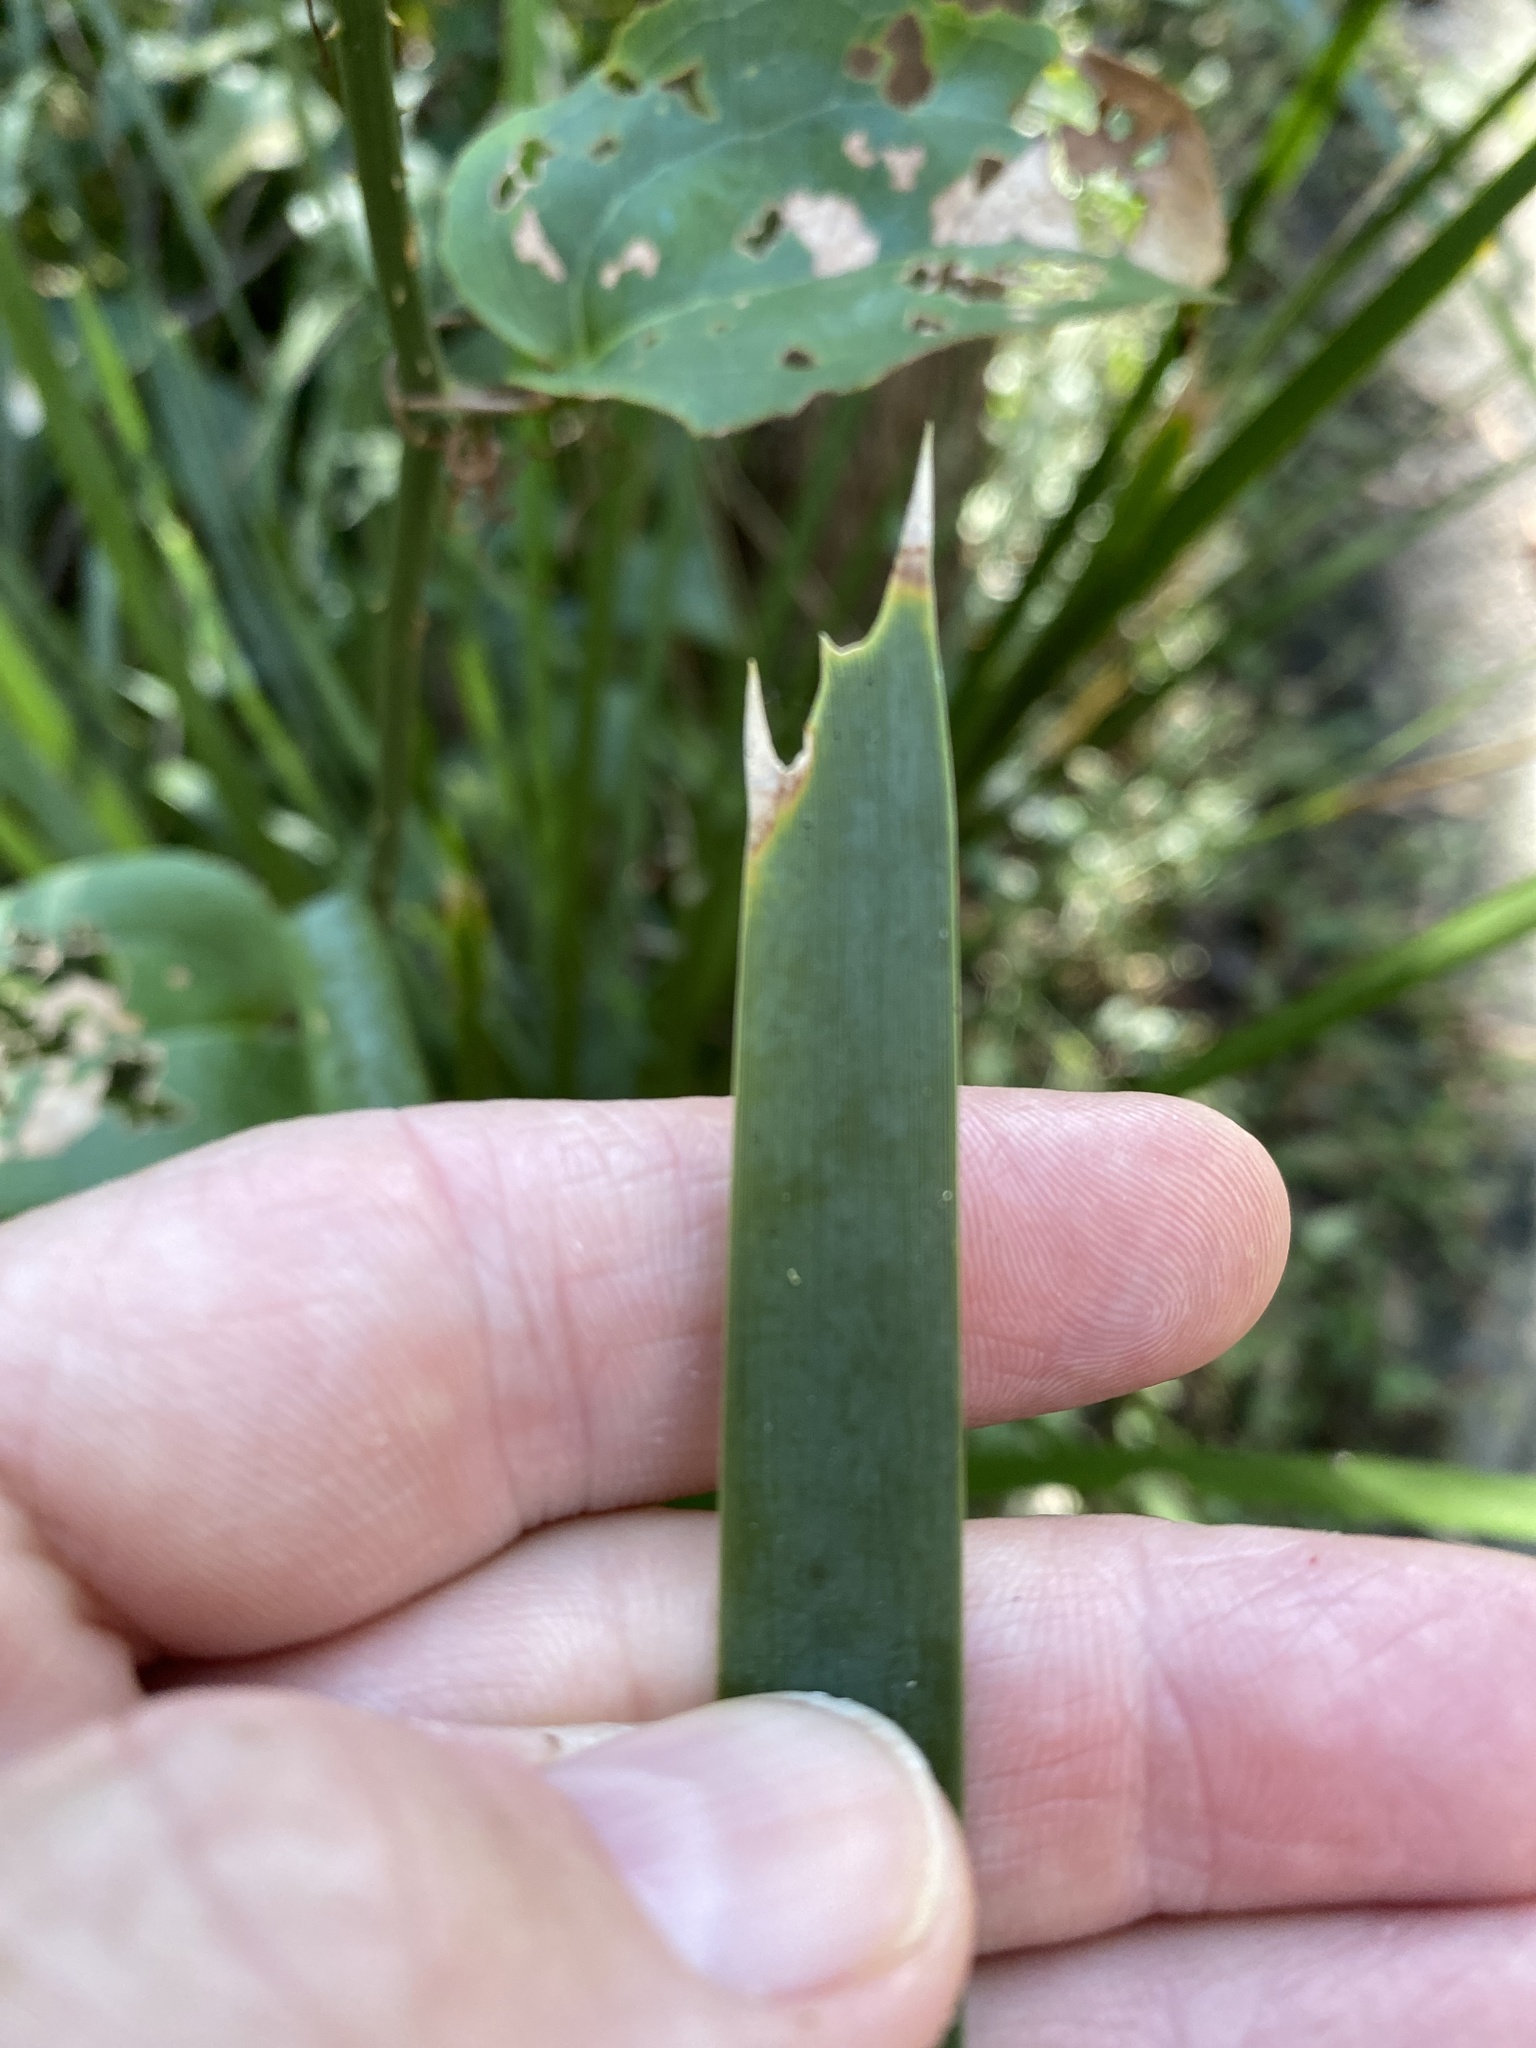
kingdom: Plantae
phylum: Tracheophyta
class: Liliopsida
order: Asparagales
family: Asparagaceae
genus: Lomandra
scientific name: Lomandra longifolia
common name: Longleaf mat-rush
